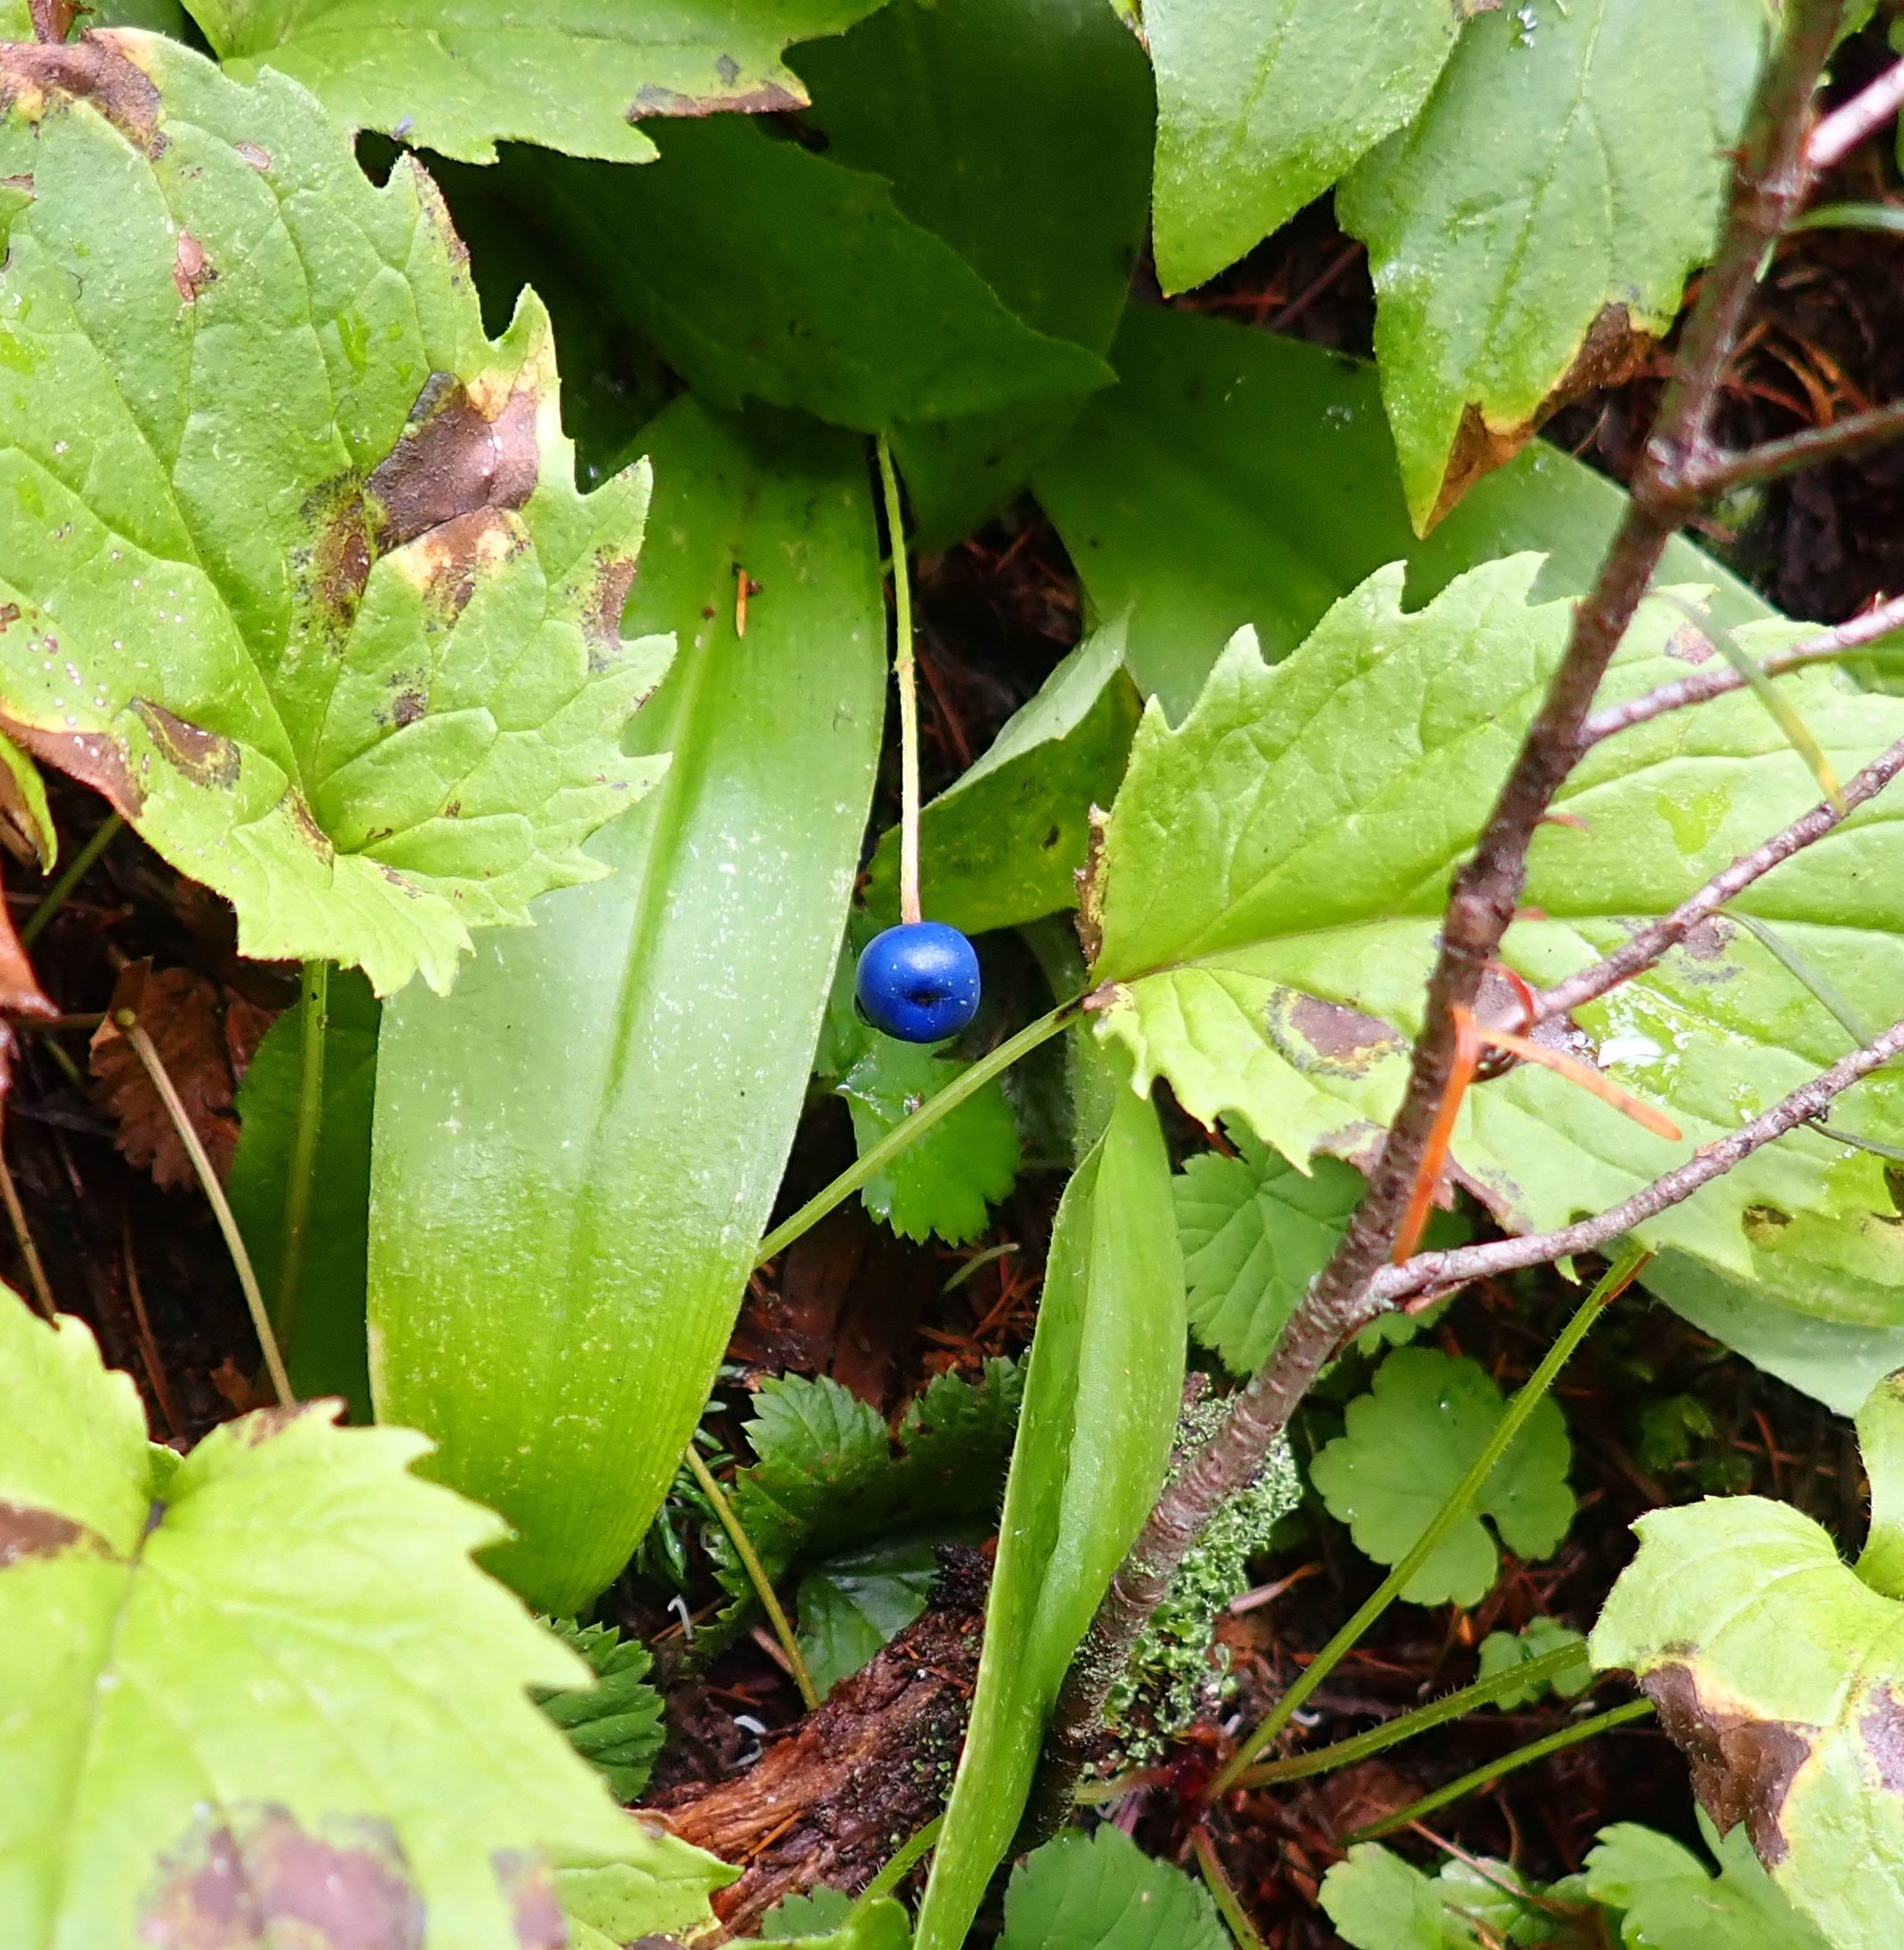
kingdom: Plantae
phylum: Tracheophyta
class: Liliopsida
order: Liliales
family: Liliaceae
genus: Clintonia
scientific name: Clintonia uniflora
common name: Queen's cup
